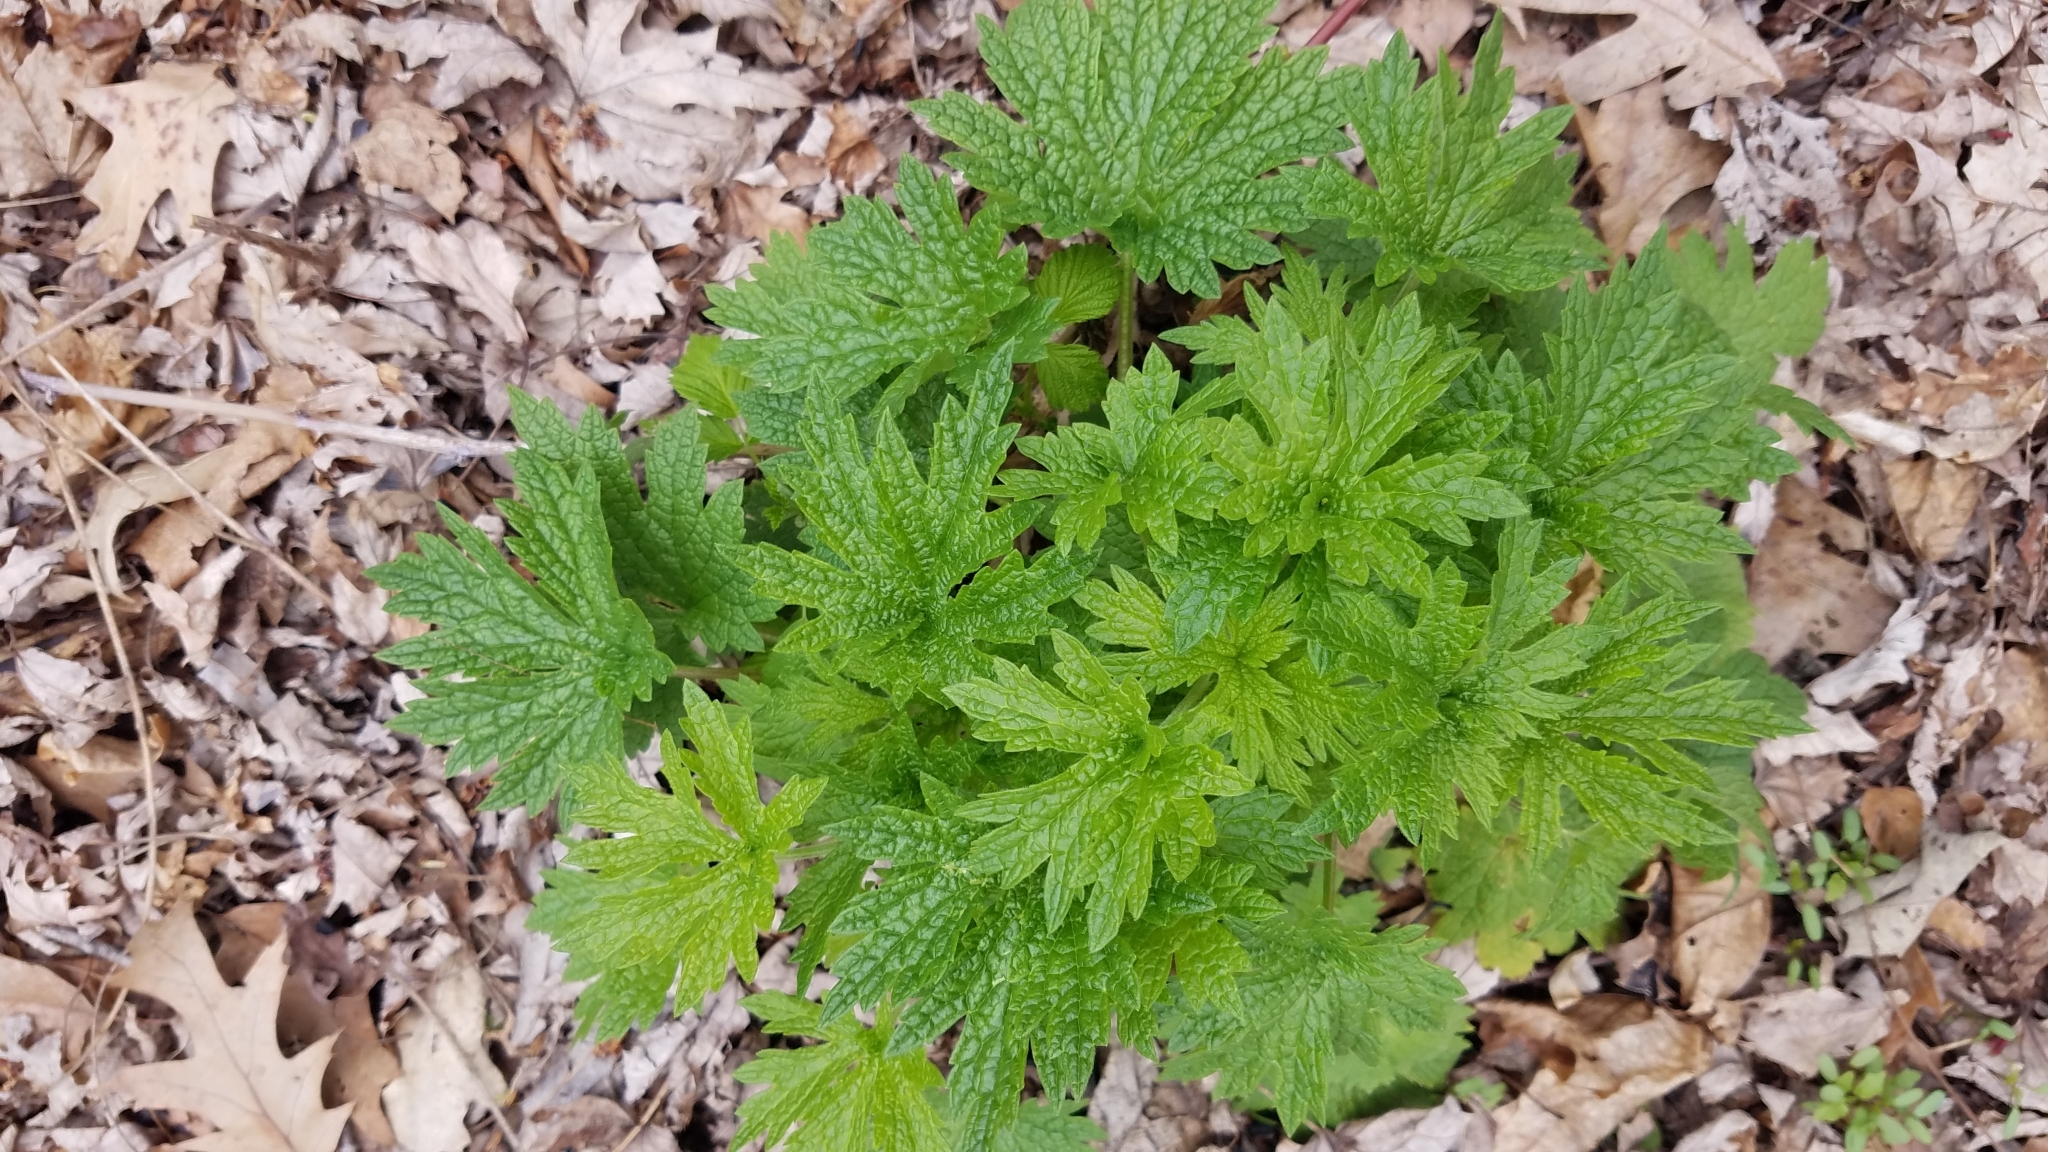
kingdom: Plantae
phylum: Tracheophyta
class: Magnoliopsida
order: Lamiales
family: Lamiaceae
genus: Leonurus
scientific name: Leonurus cardiaca
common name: Motherwort
